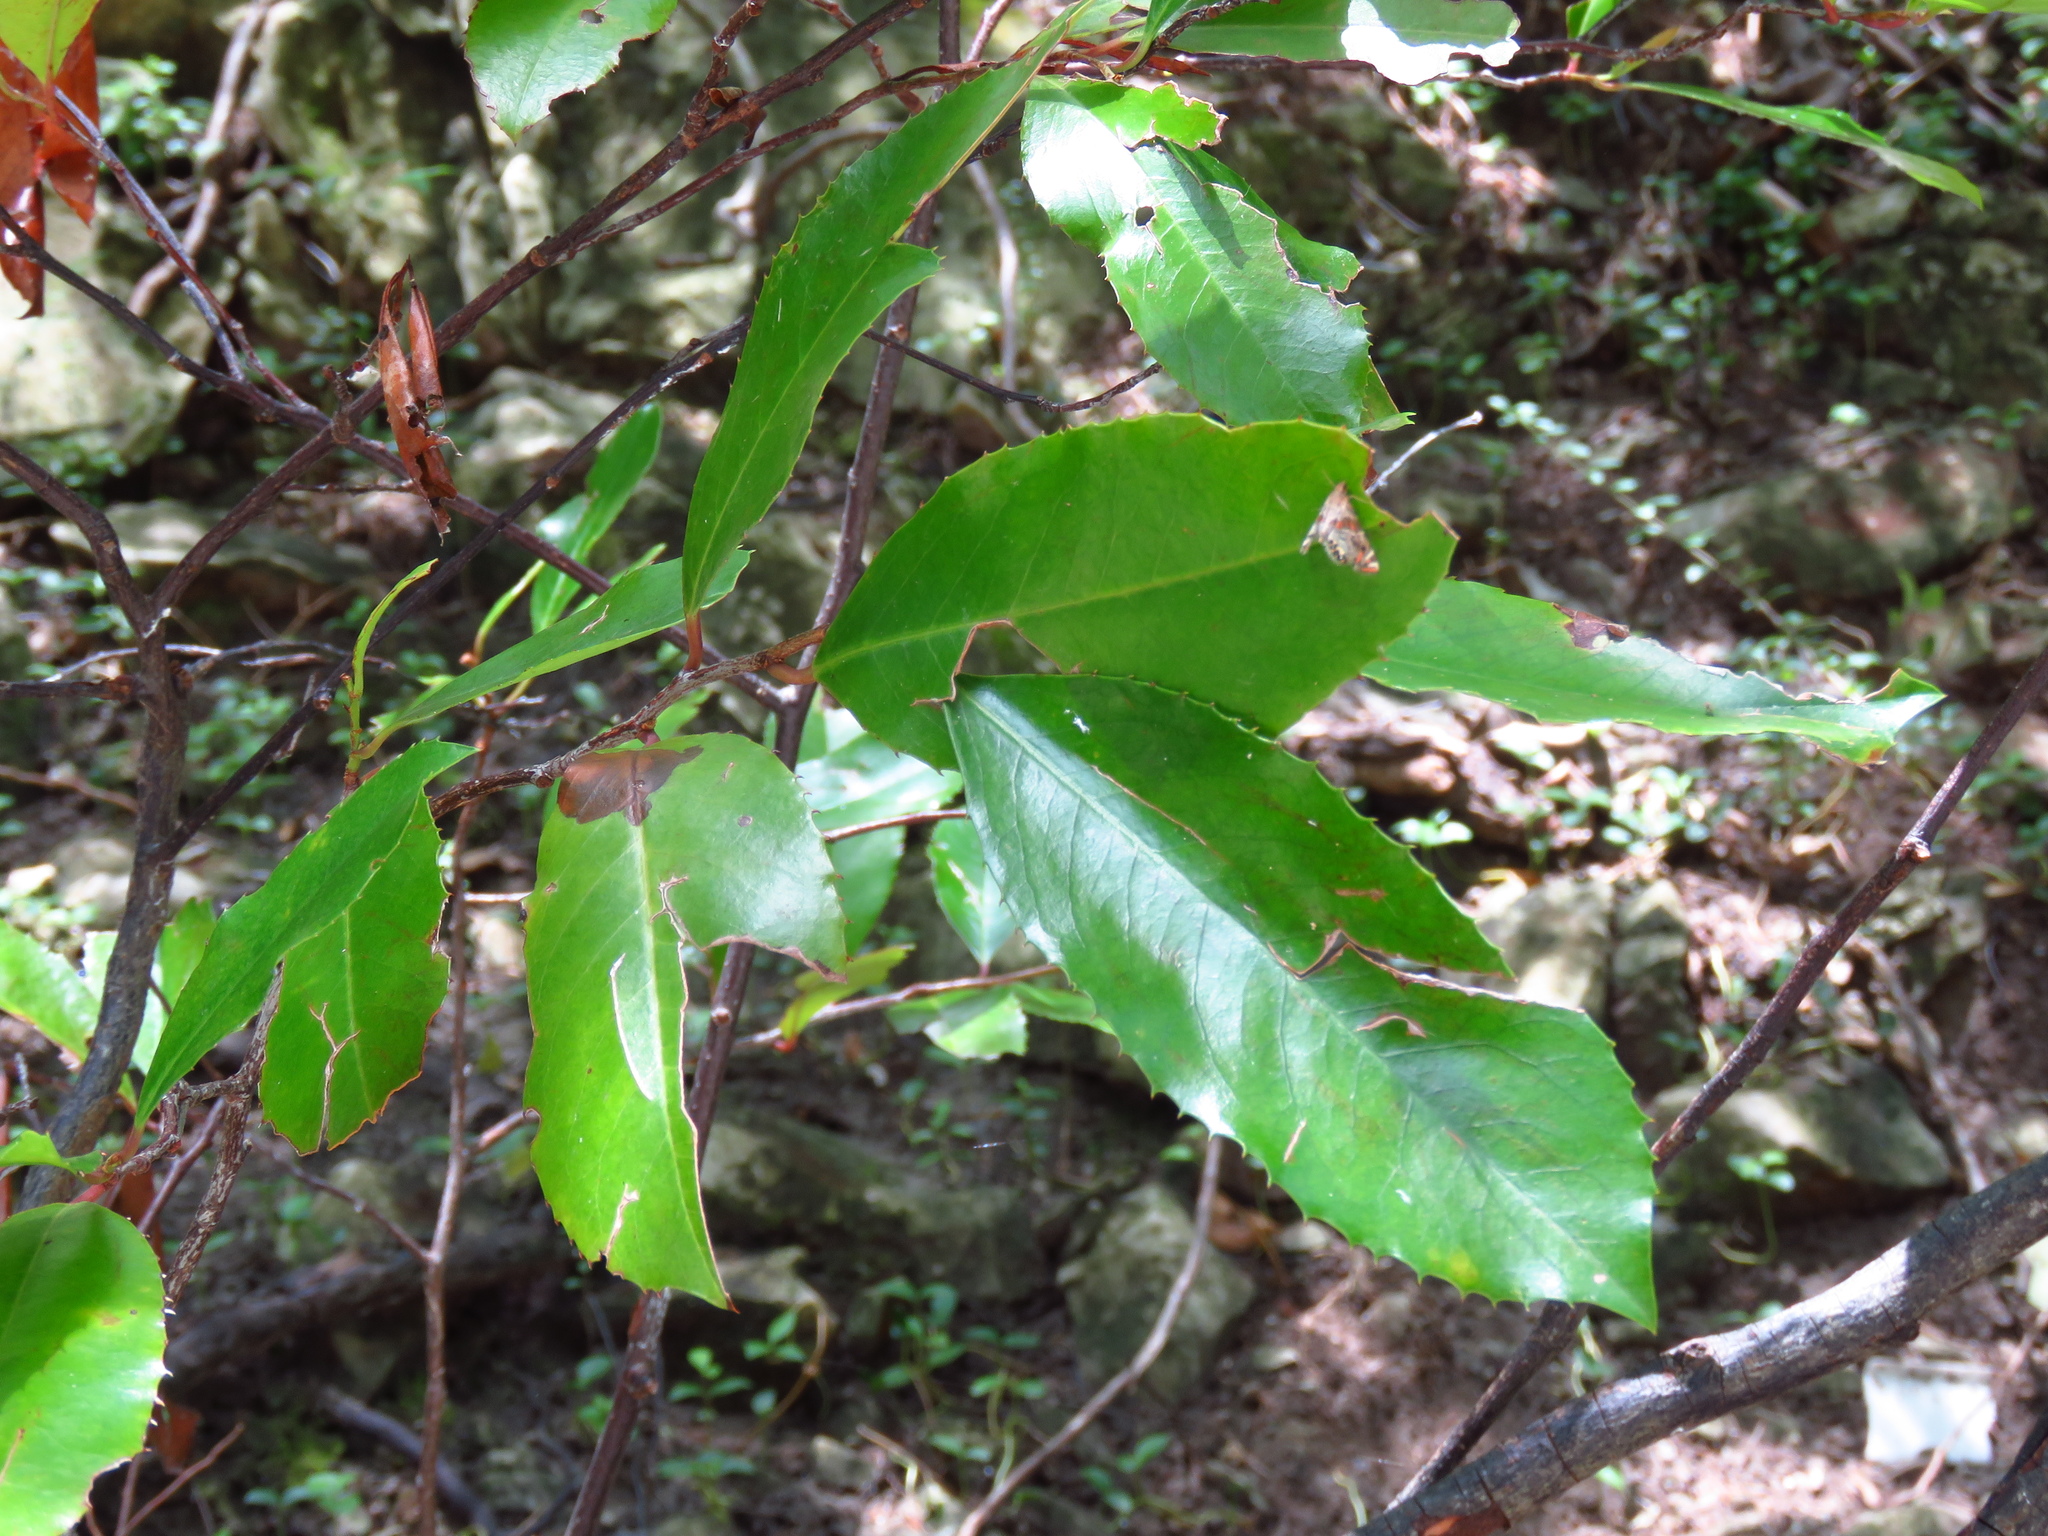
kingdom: Plantae
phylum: Tracheophyta
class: Magnoliopsida
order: Rosales
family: Rosaceae
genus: Prunus
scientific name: Prunus caroliniana
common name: Carolina laurel cherry
